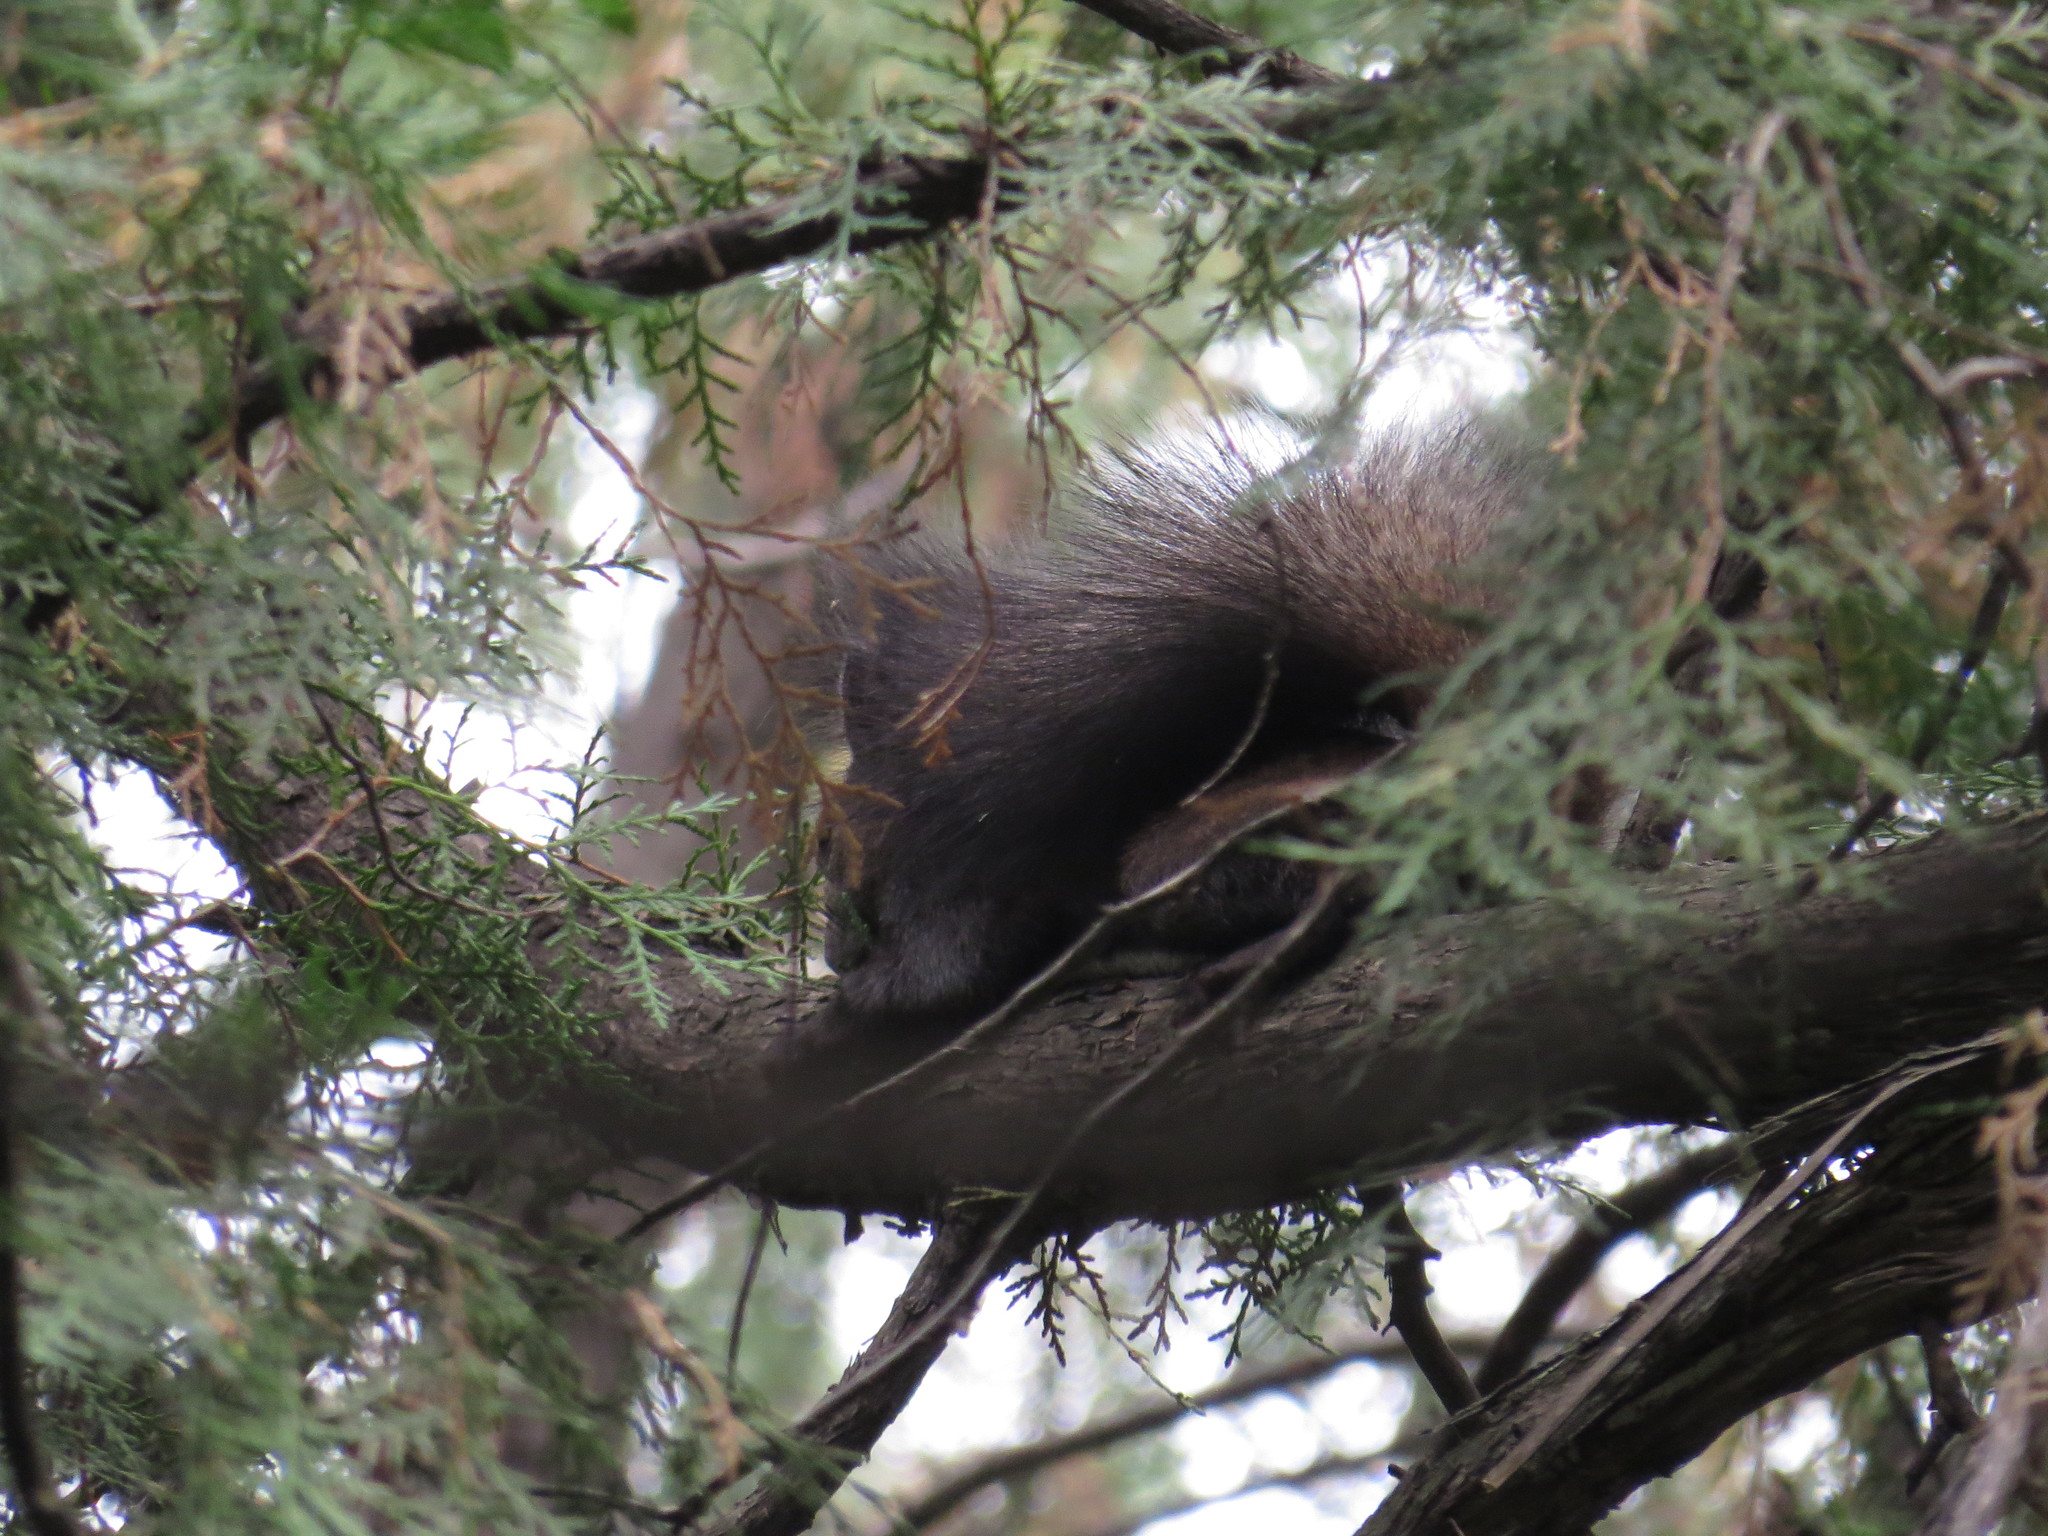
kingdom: Animalia
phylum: Chordata
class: Mammalia
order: Rodentia
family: Sciuridae
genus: Sciurus
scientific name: Sciurus vulgaris
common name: Eurasian red squirrel
